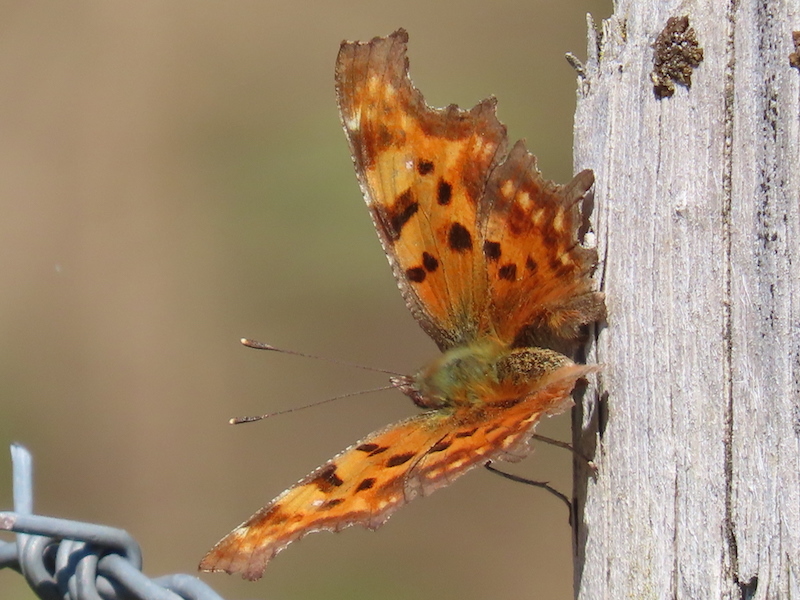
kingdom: Animalia
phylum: Arthropoda
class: Insecta
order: Lepidoptera
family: Nymphalidae
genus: Polygonia
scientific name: Polygonia c-album
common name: Comma
